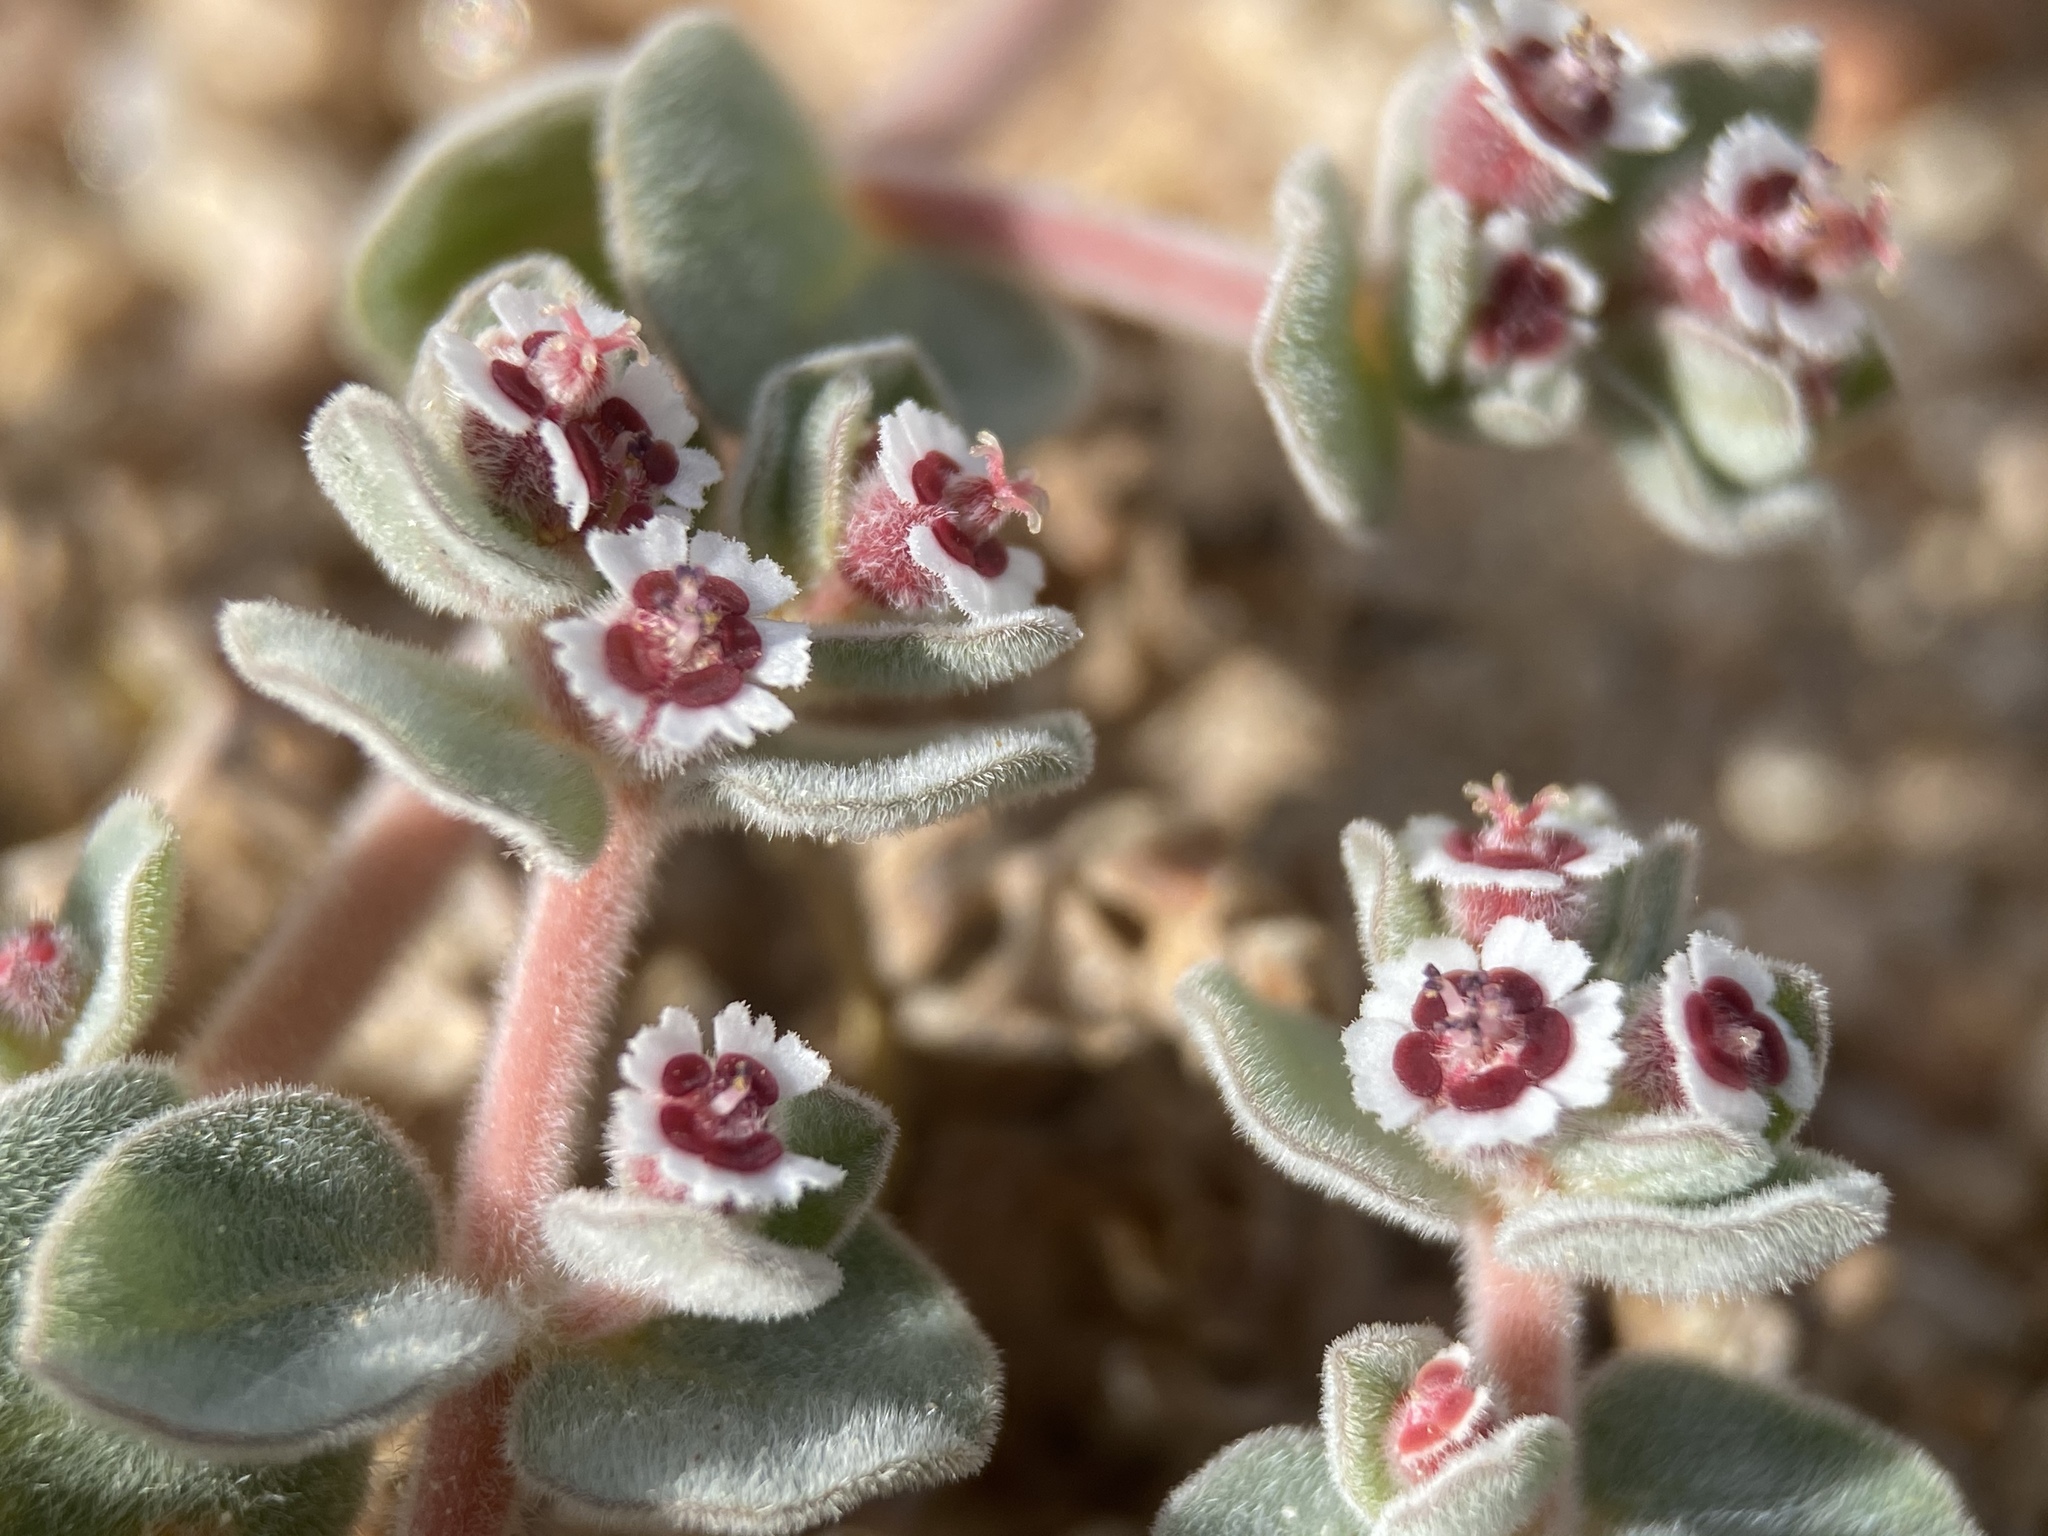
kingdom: Plantae
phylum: Tracheophyta
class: Magnoliopsida
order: Malpighiales
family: Euphorbiaceae
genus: Euphorbia
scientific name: Euphorbia vallis-mortae
